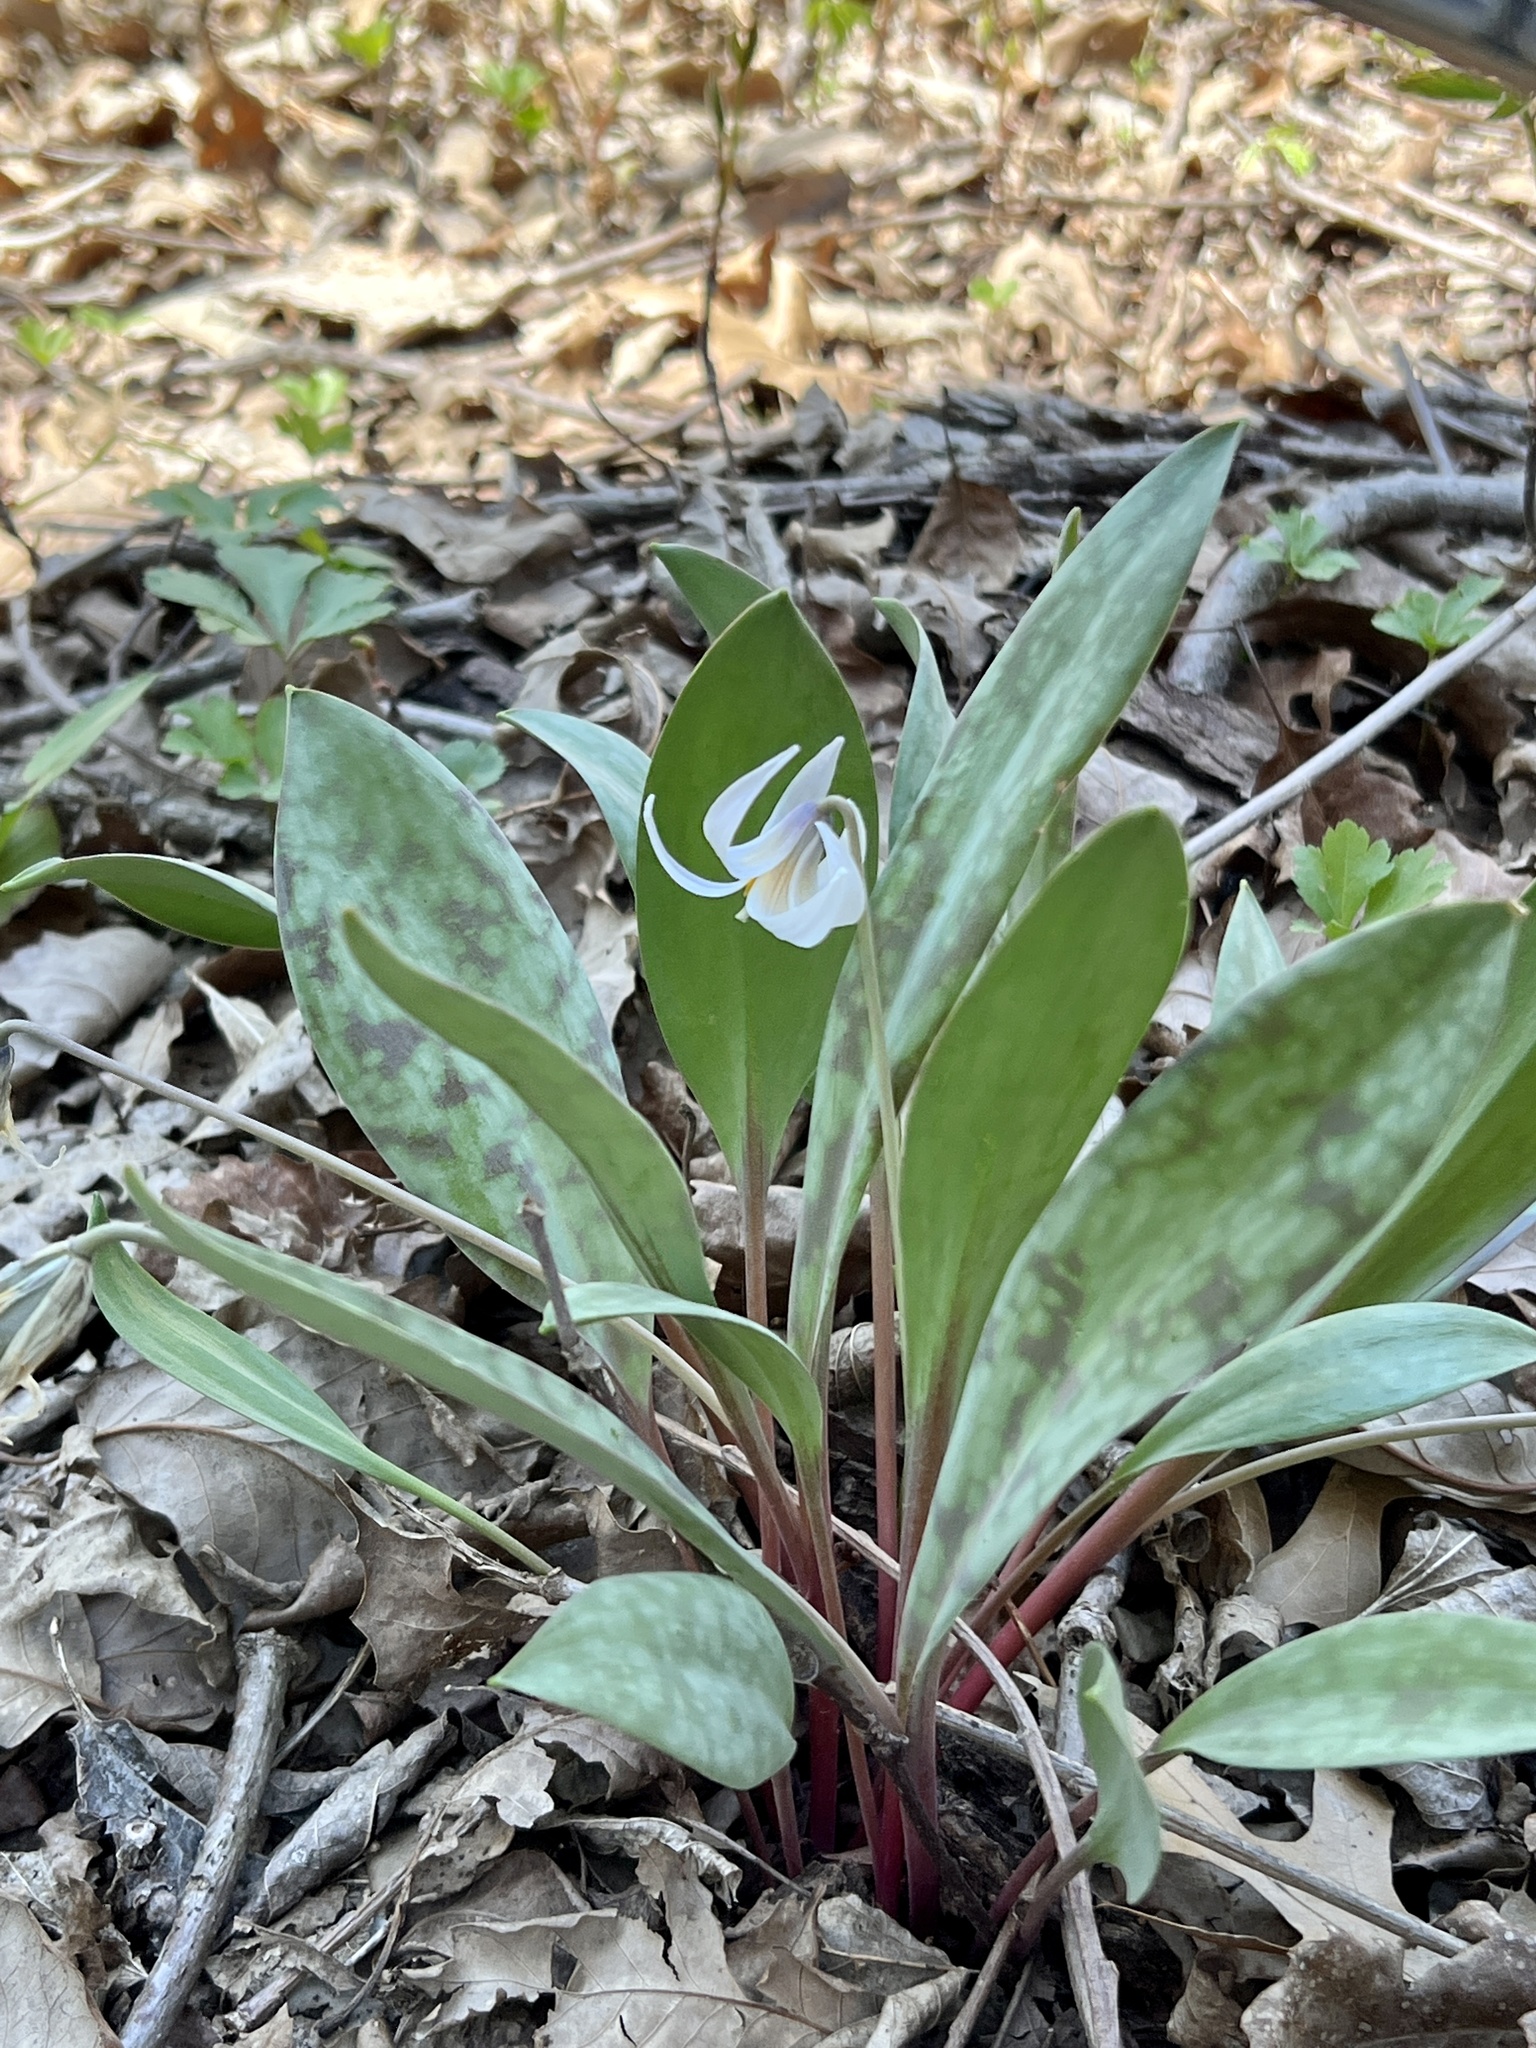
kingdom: Plantae
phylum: Tracheophyta
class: Liliopsida
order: Liliales
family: Liliaceae
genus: Erythronium
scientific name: Erythronium albidum
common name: White trout-lily
